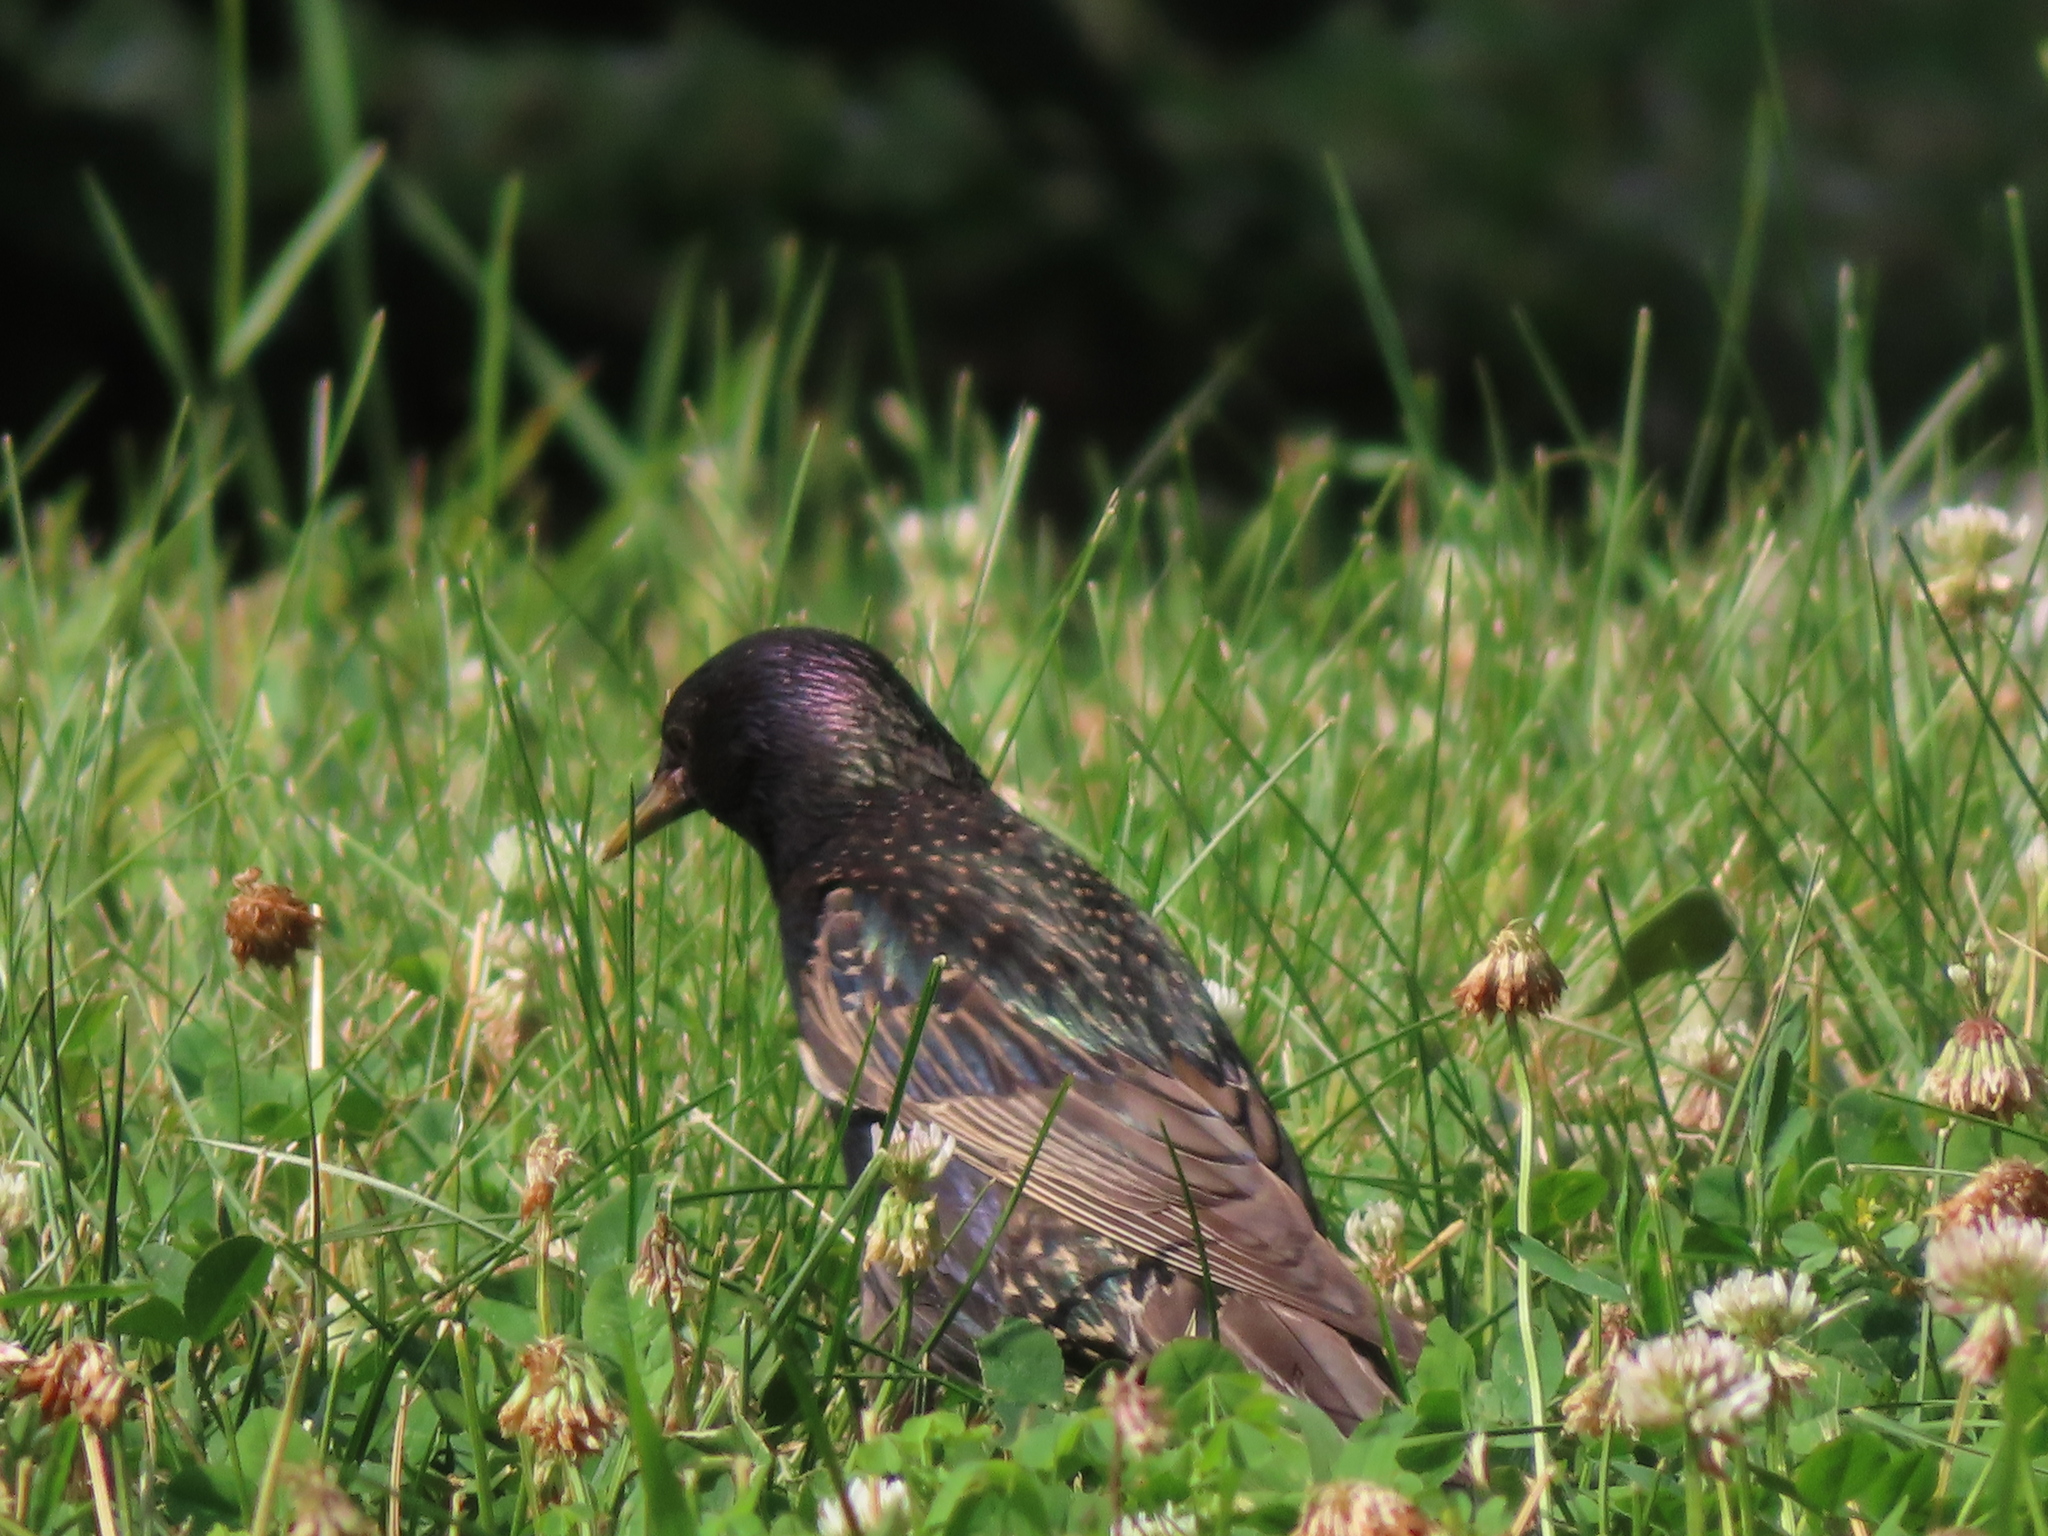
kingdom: Animalia
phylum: Chordata
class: Aves
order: Passeriformes
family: Sturnidae
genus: Sturnus
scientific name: Sturnus vulgaris
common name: Common starling
